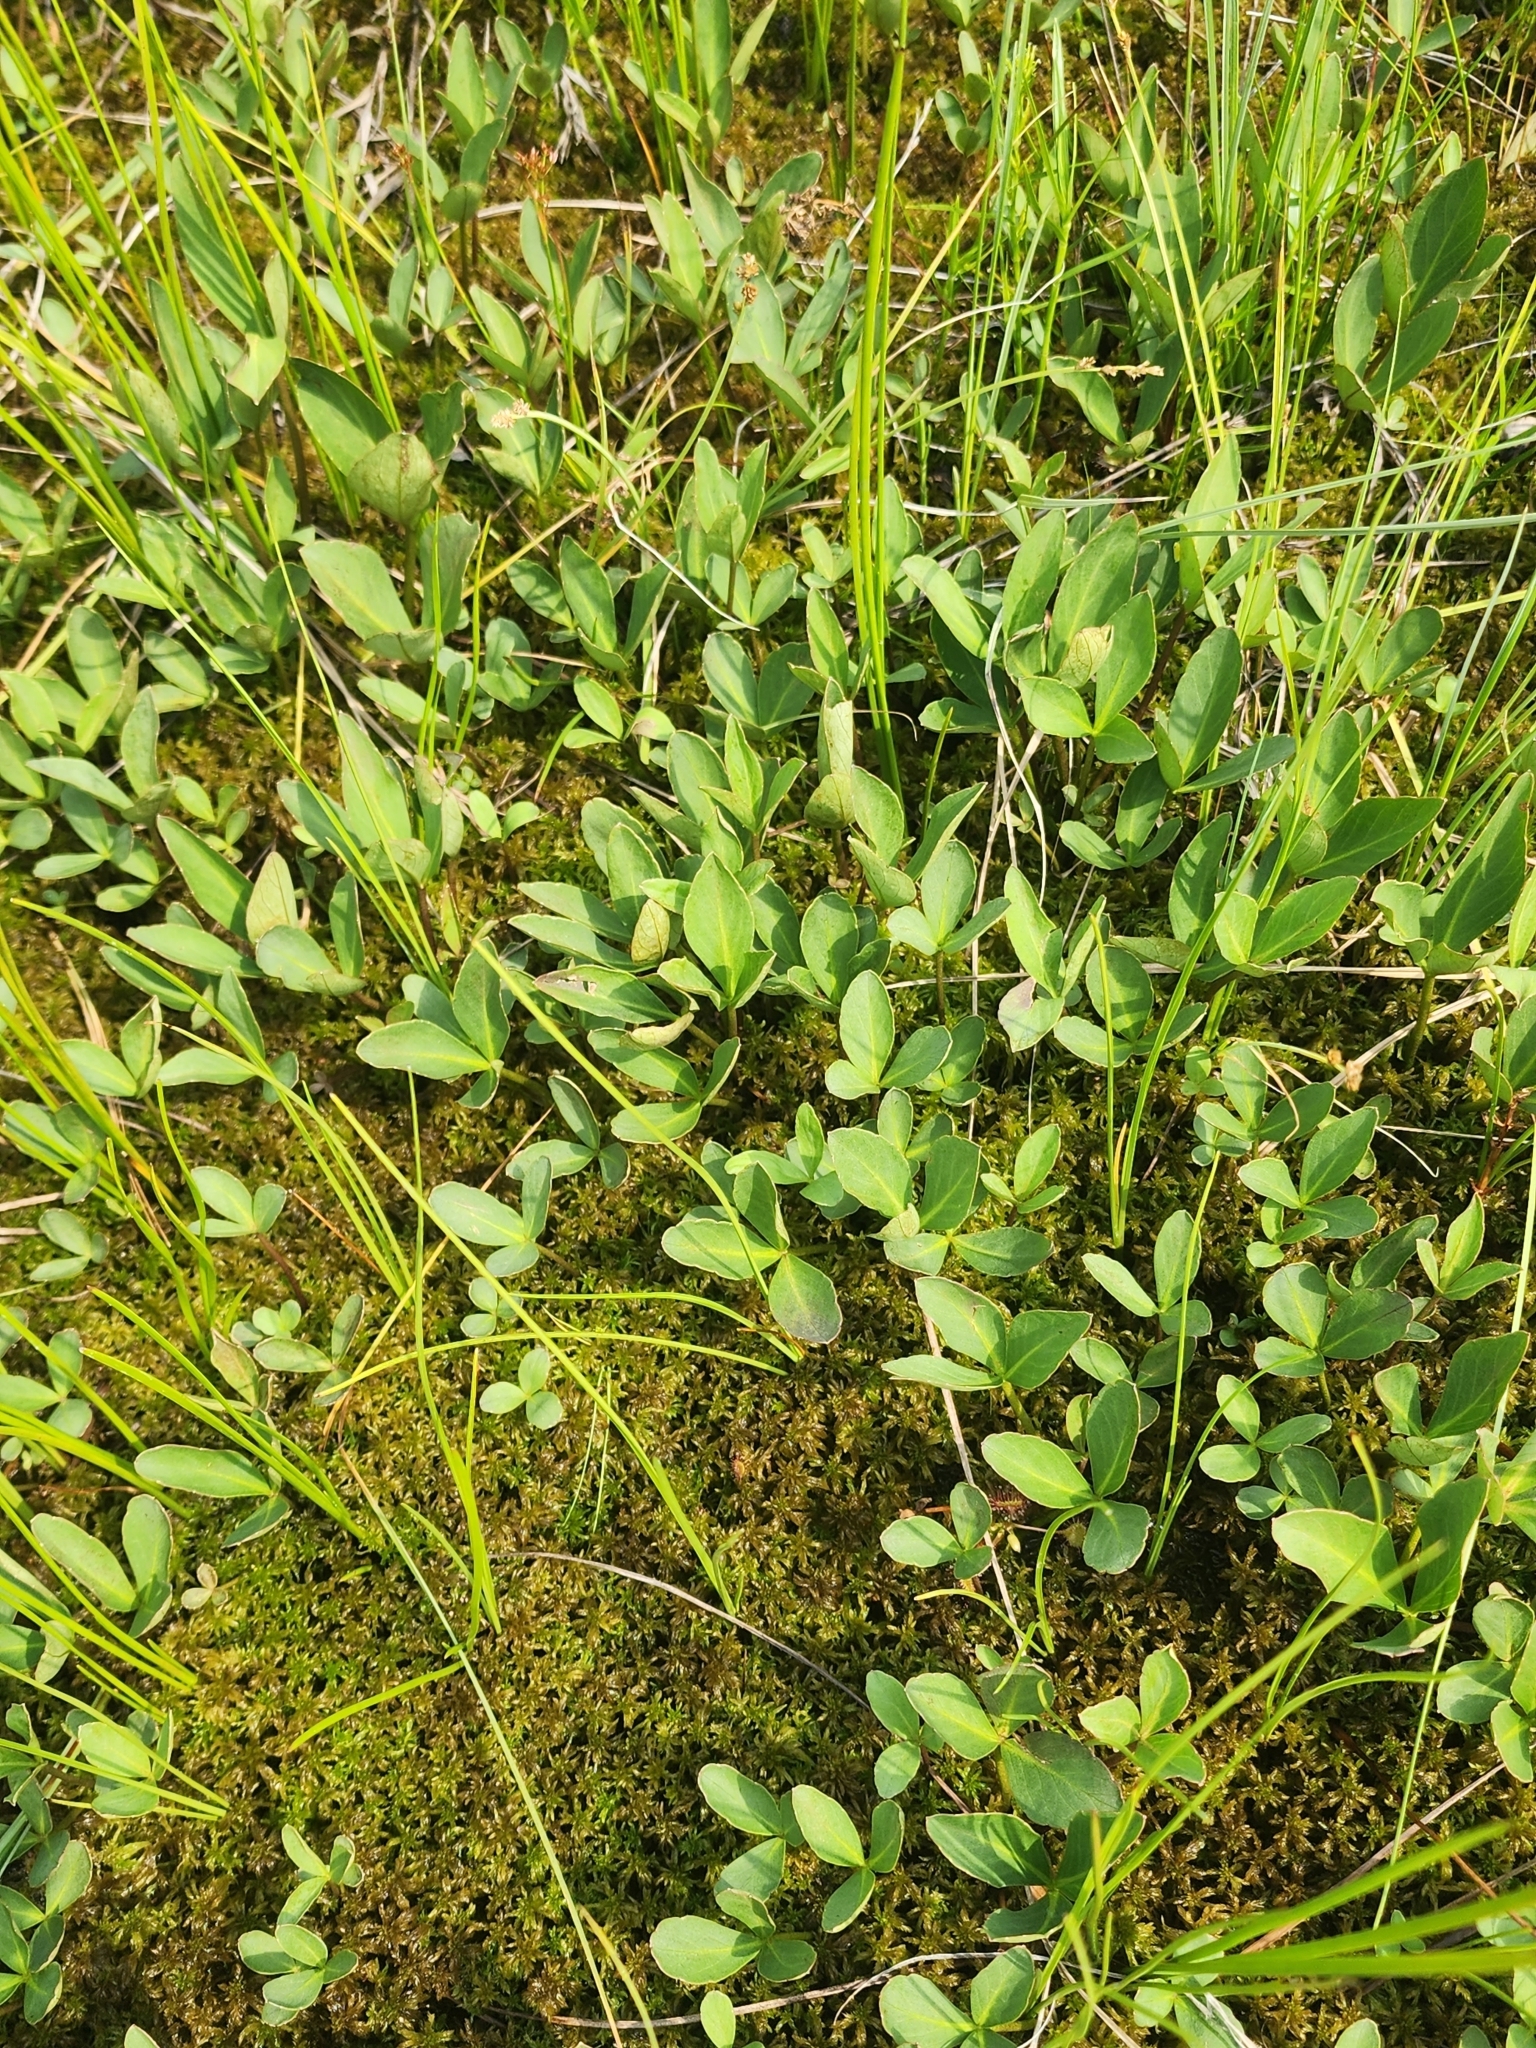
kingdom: Plantae
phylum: Tracheophyta
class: Magnoliopsida
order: Asterales
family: Menyanthaceae
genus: Menyanthes
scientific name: Menyanthes trifoliata
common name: Bogbean
